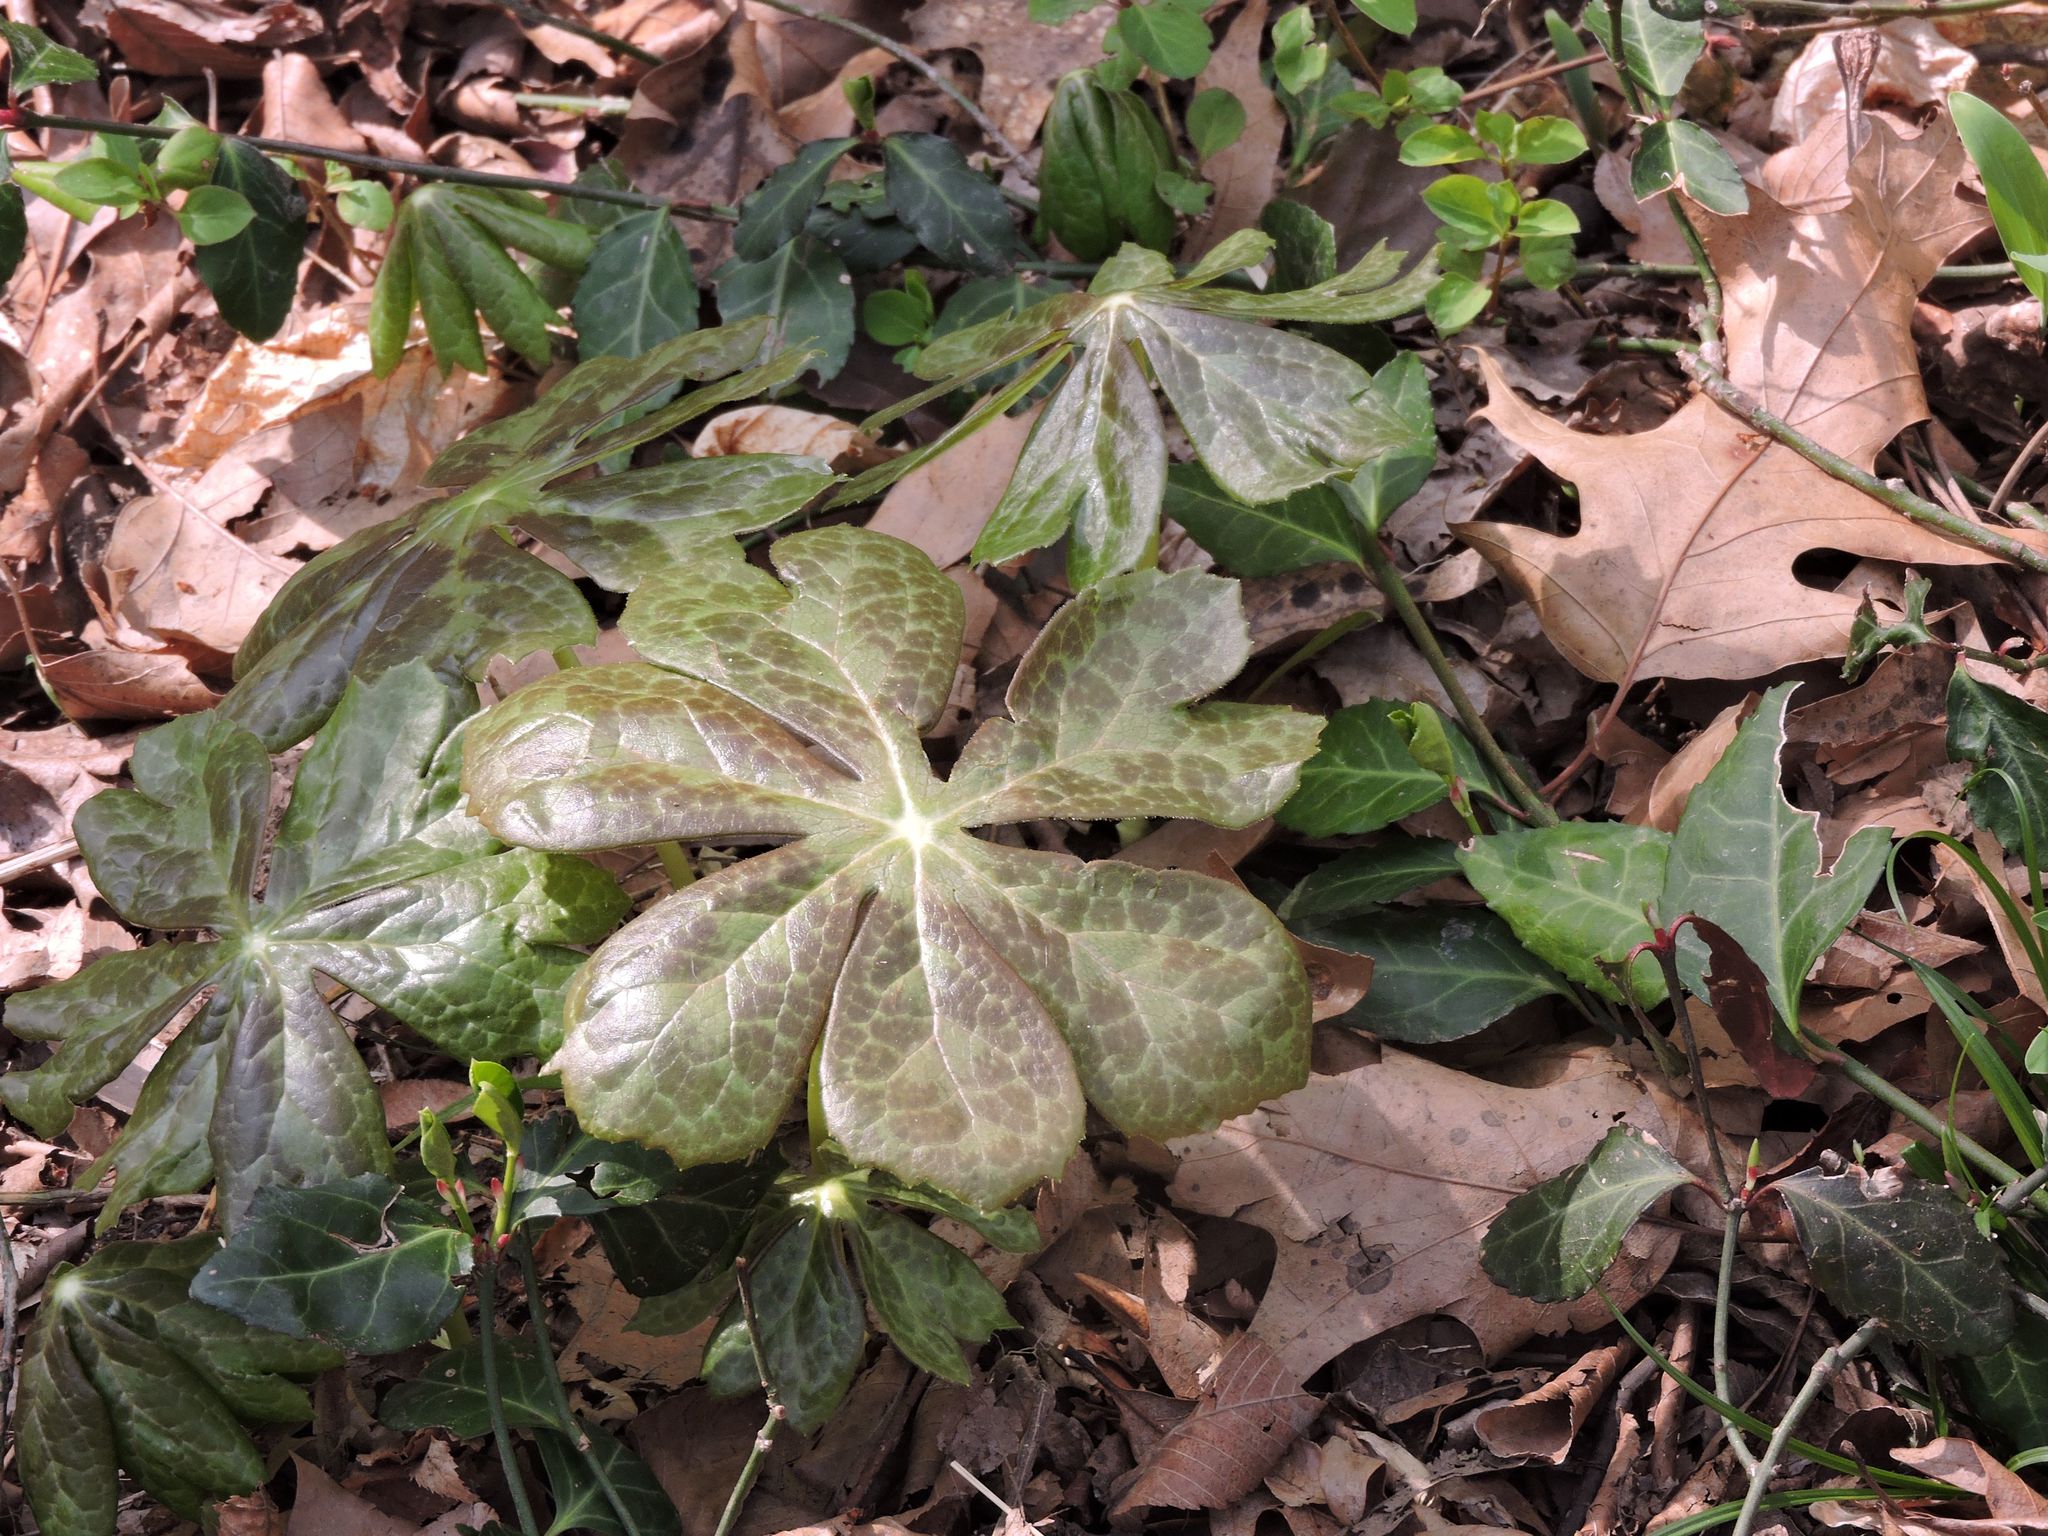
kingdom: Plantae
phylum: Tracheophyta
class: Magnoliopsida
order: Ranunculales
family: Berberidaceae
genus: Podophyllum
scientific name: Podophyllum peltatum
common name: Wild mandrake
